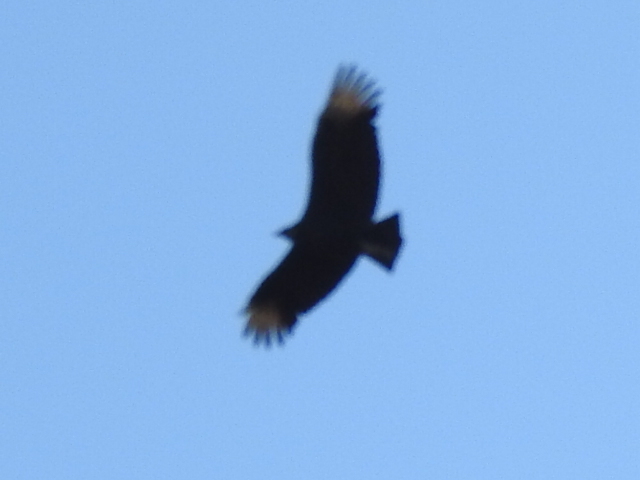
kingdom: Animalia
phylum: Chordata
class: Aves
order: Accipitriformes
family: Cathartidae
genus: Coragyps
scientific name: Coragyps atratus
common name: Black vulture
